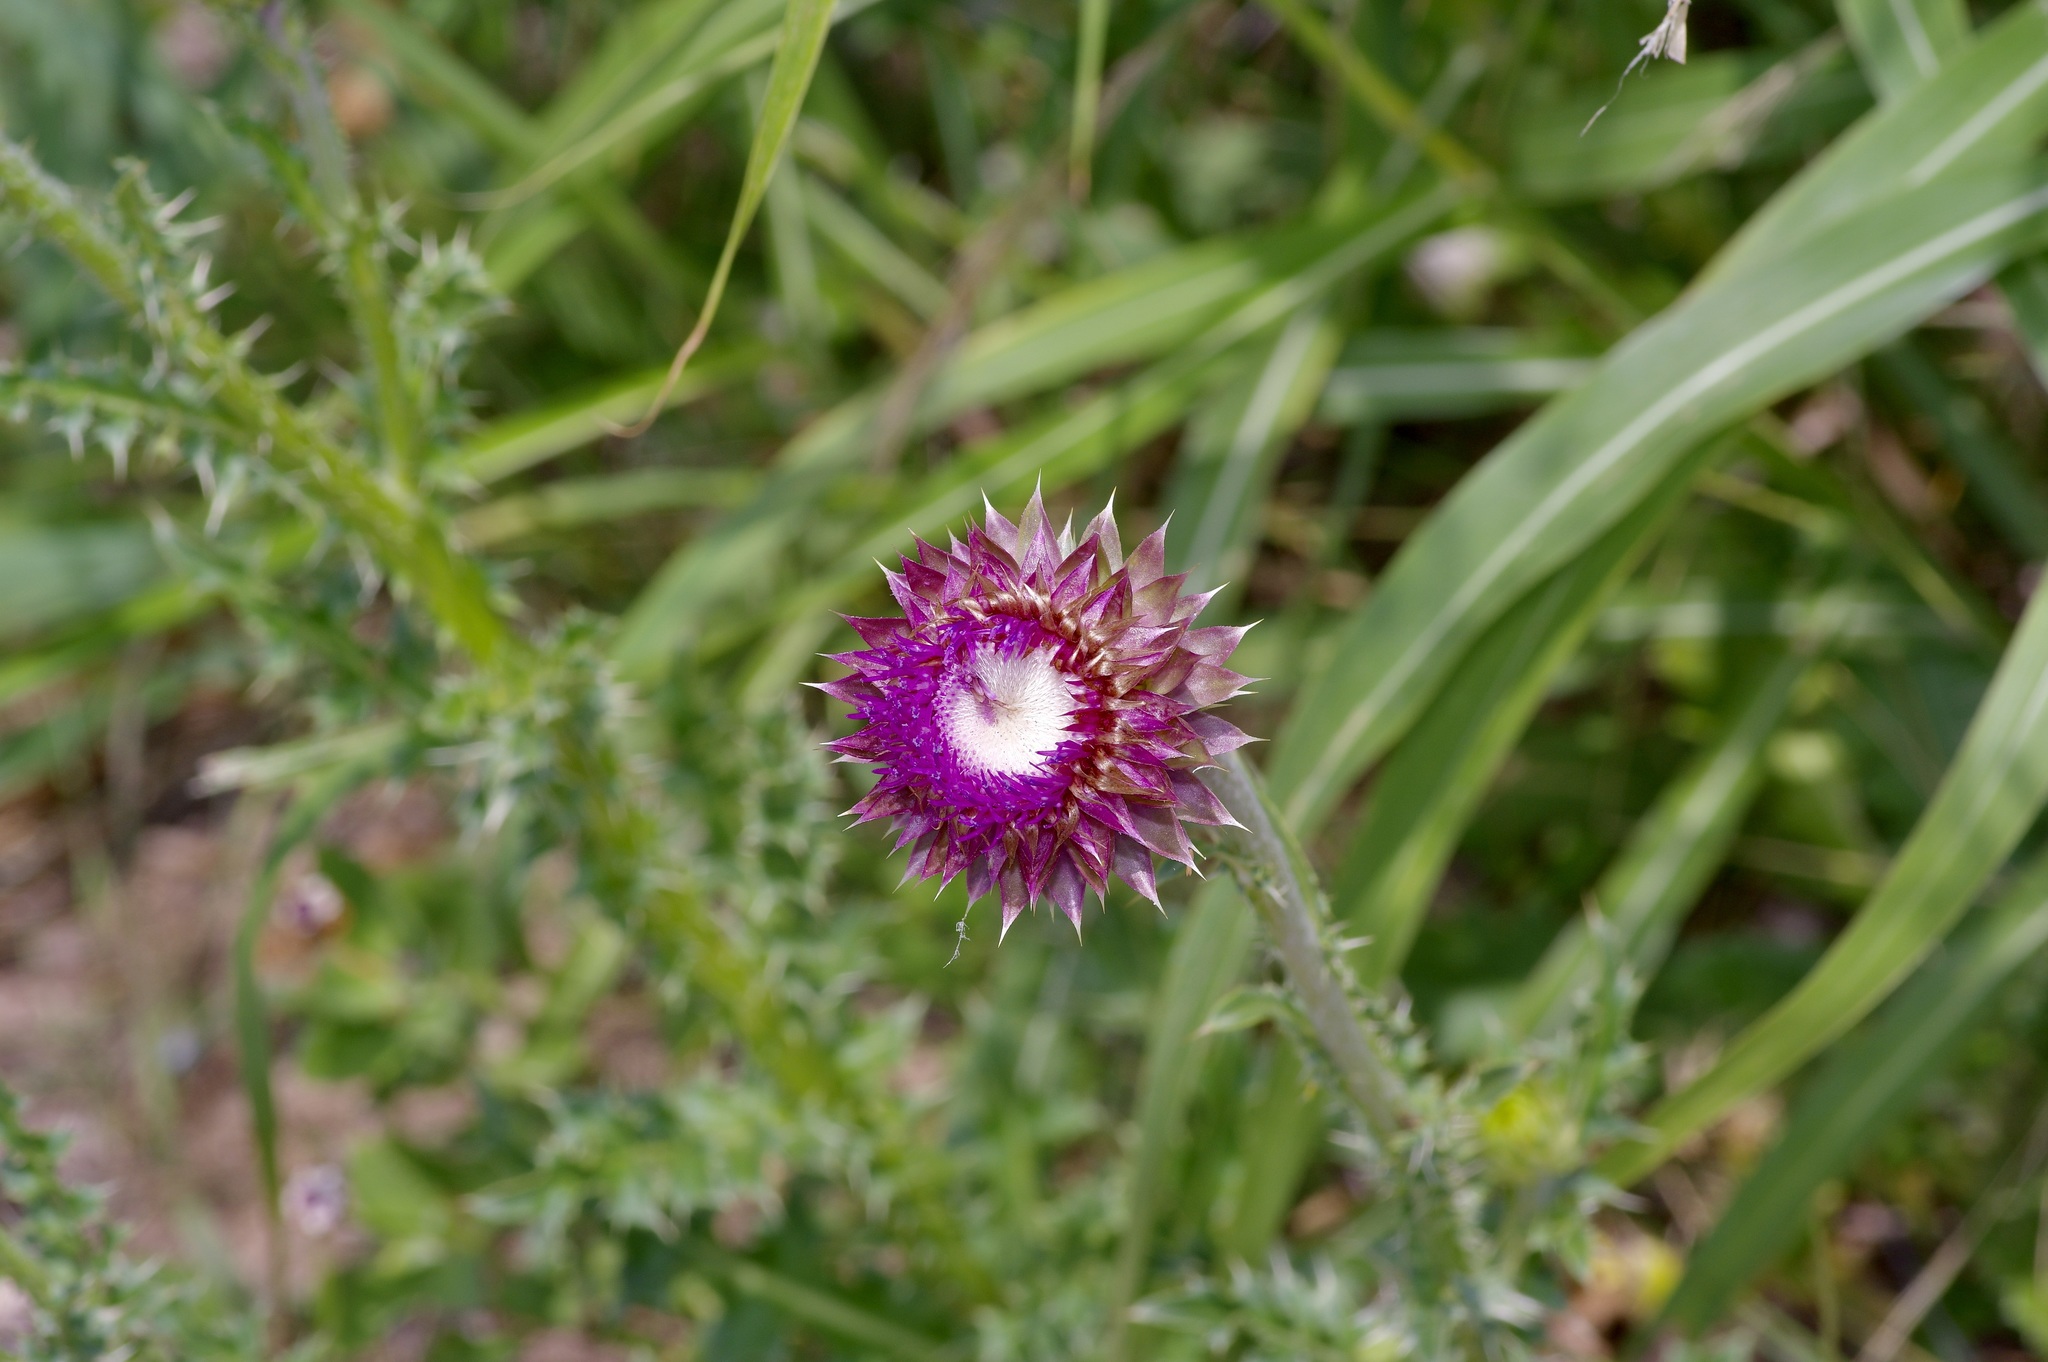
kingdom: Plantae
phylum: Tracheophyta
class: Magnoliopsida
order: Asterales
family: Asteraceae
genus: Carduus
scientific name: Carduus nutans
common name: Musk thistle
